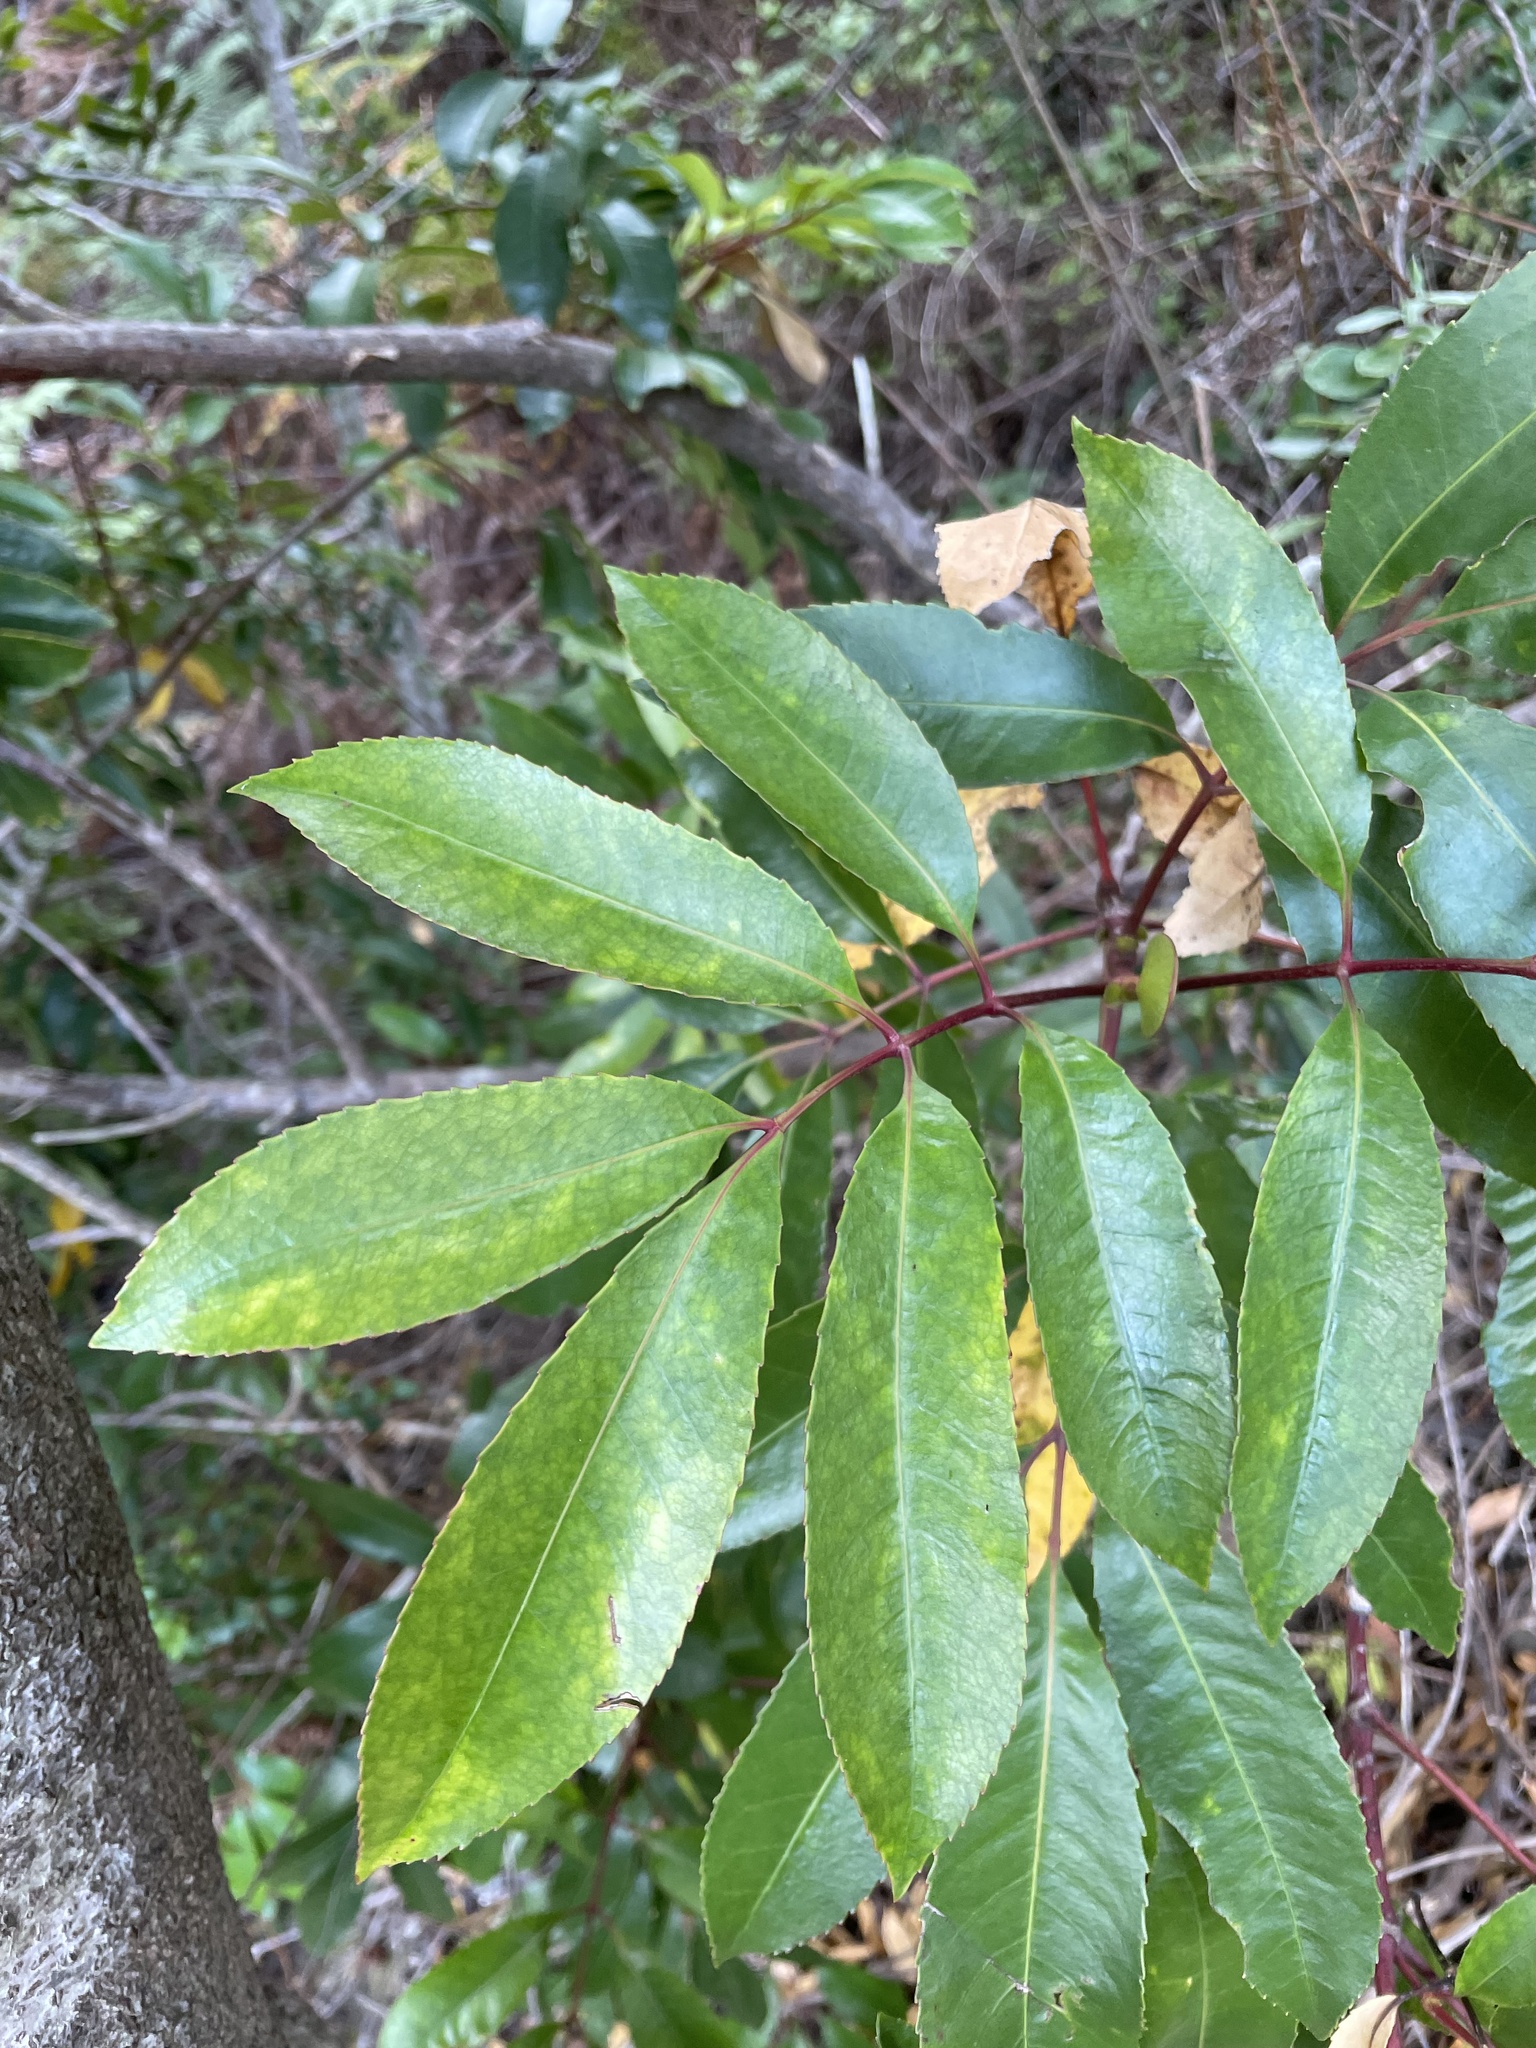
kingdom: Plantae
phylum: Tracheophyta
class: Magnoliopsida
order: Oxalidales
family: Cunoniaceae
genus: Cunonia
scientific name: Cunonia capensis
